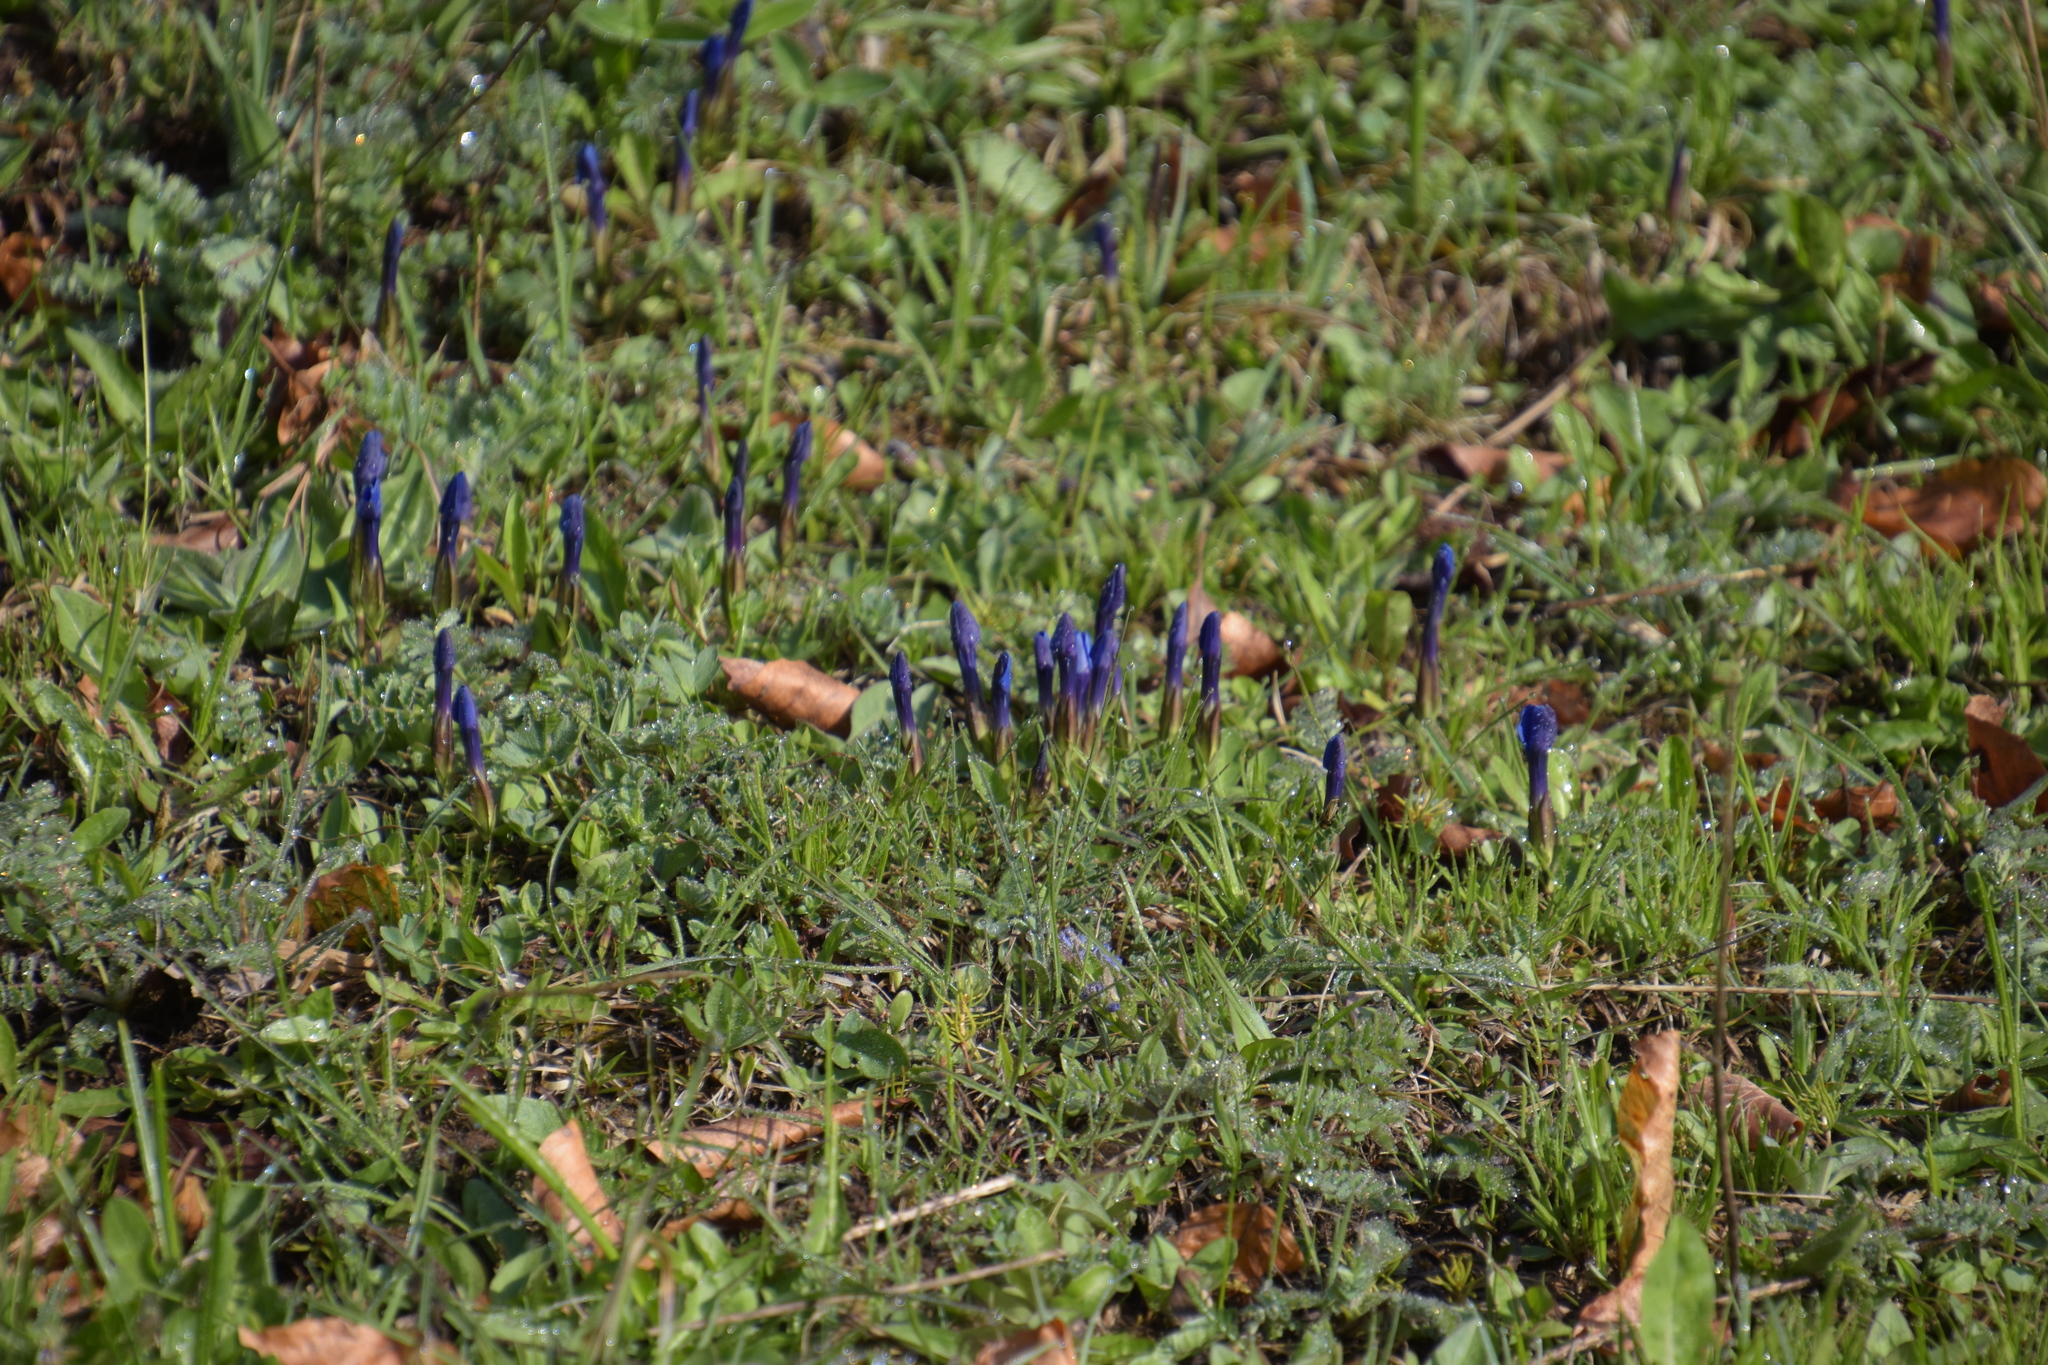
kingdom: Plantae
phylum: Tracheophyta
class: Magnoliopsida
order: Gentianales
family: Gentianaceae
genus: Gentiana
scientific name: Gentiana verna
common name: Spring gentian
